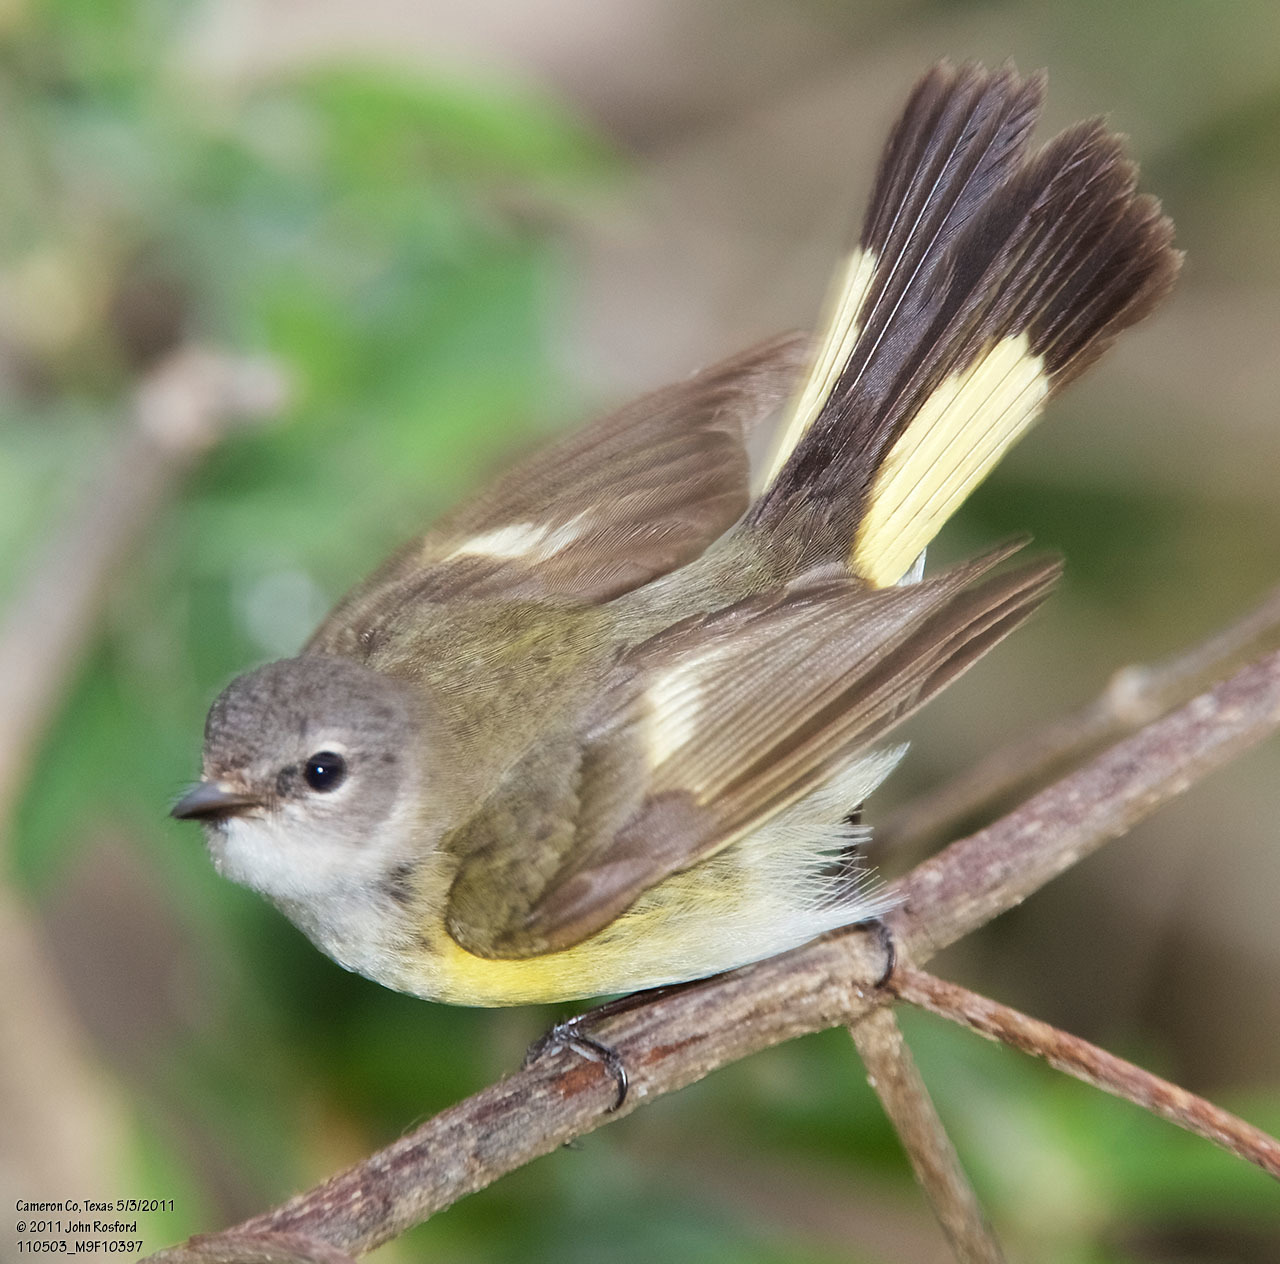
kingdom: Animalia
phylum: Chordata
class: Aves
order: Passeriformes
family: Parulidae
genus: Setophaga
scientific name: Setophaga ruticilla
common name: American redstart
